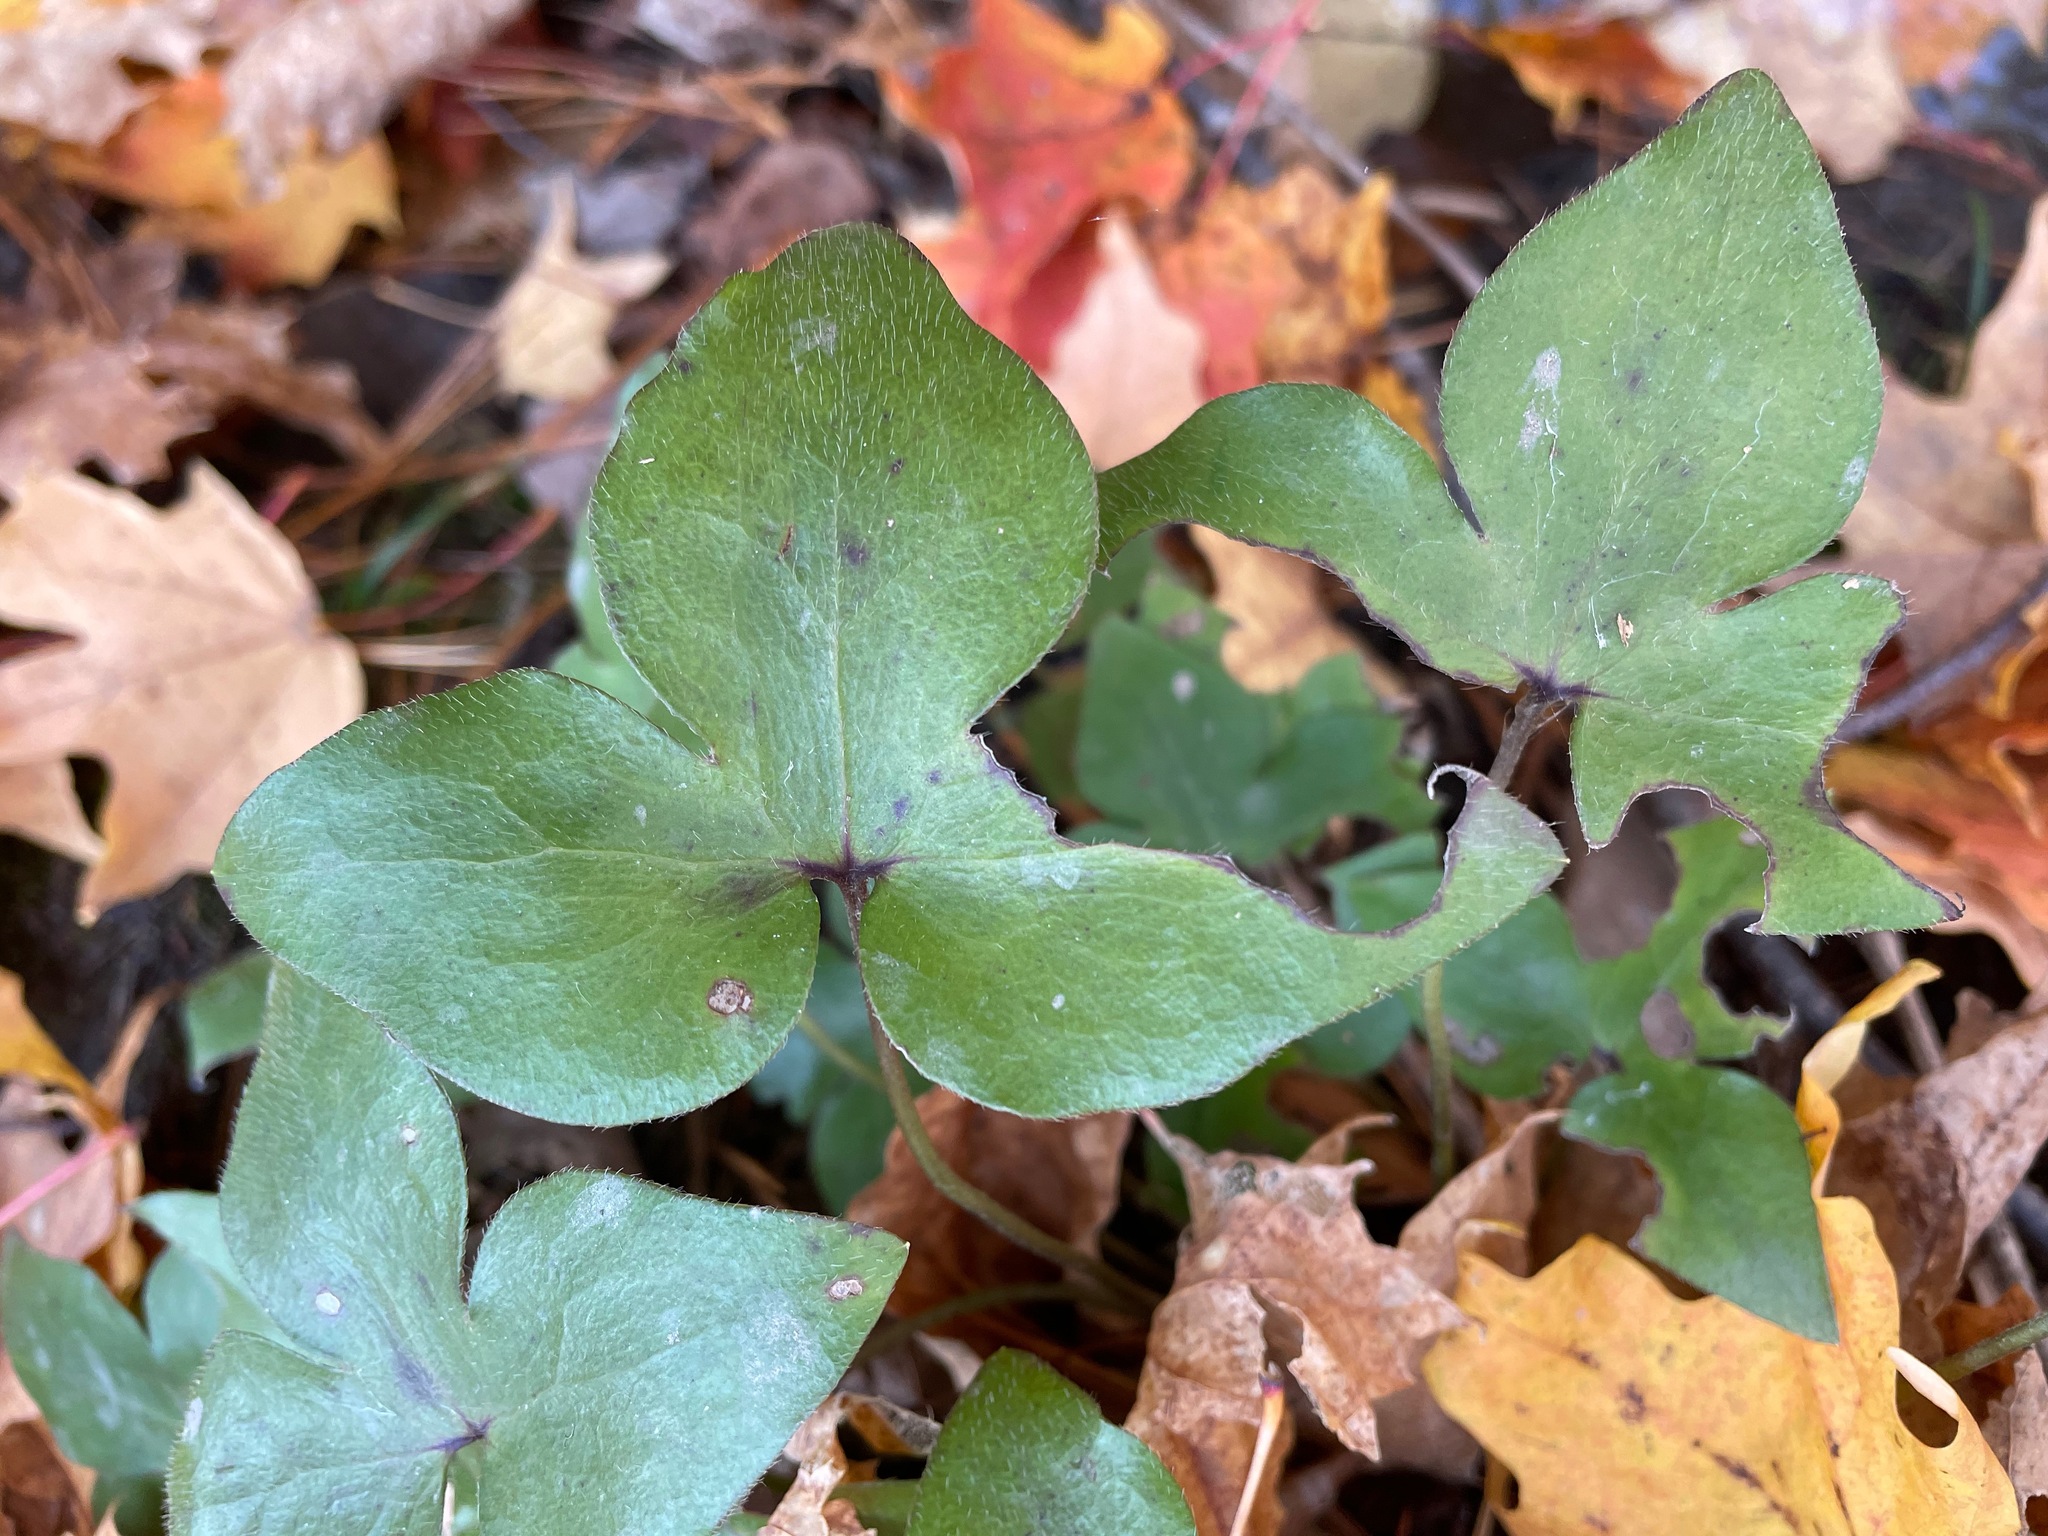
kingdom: Plantae
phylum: Tracheophyta
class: Magnoliopsida
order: Ranunculales
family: Ranunculaceae
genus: Hepatica
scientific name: Hepatica acutiloba
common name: Sharp-lobed hepatica
